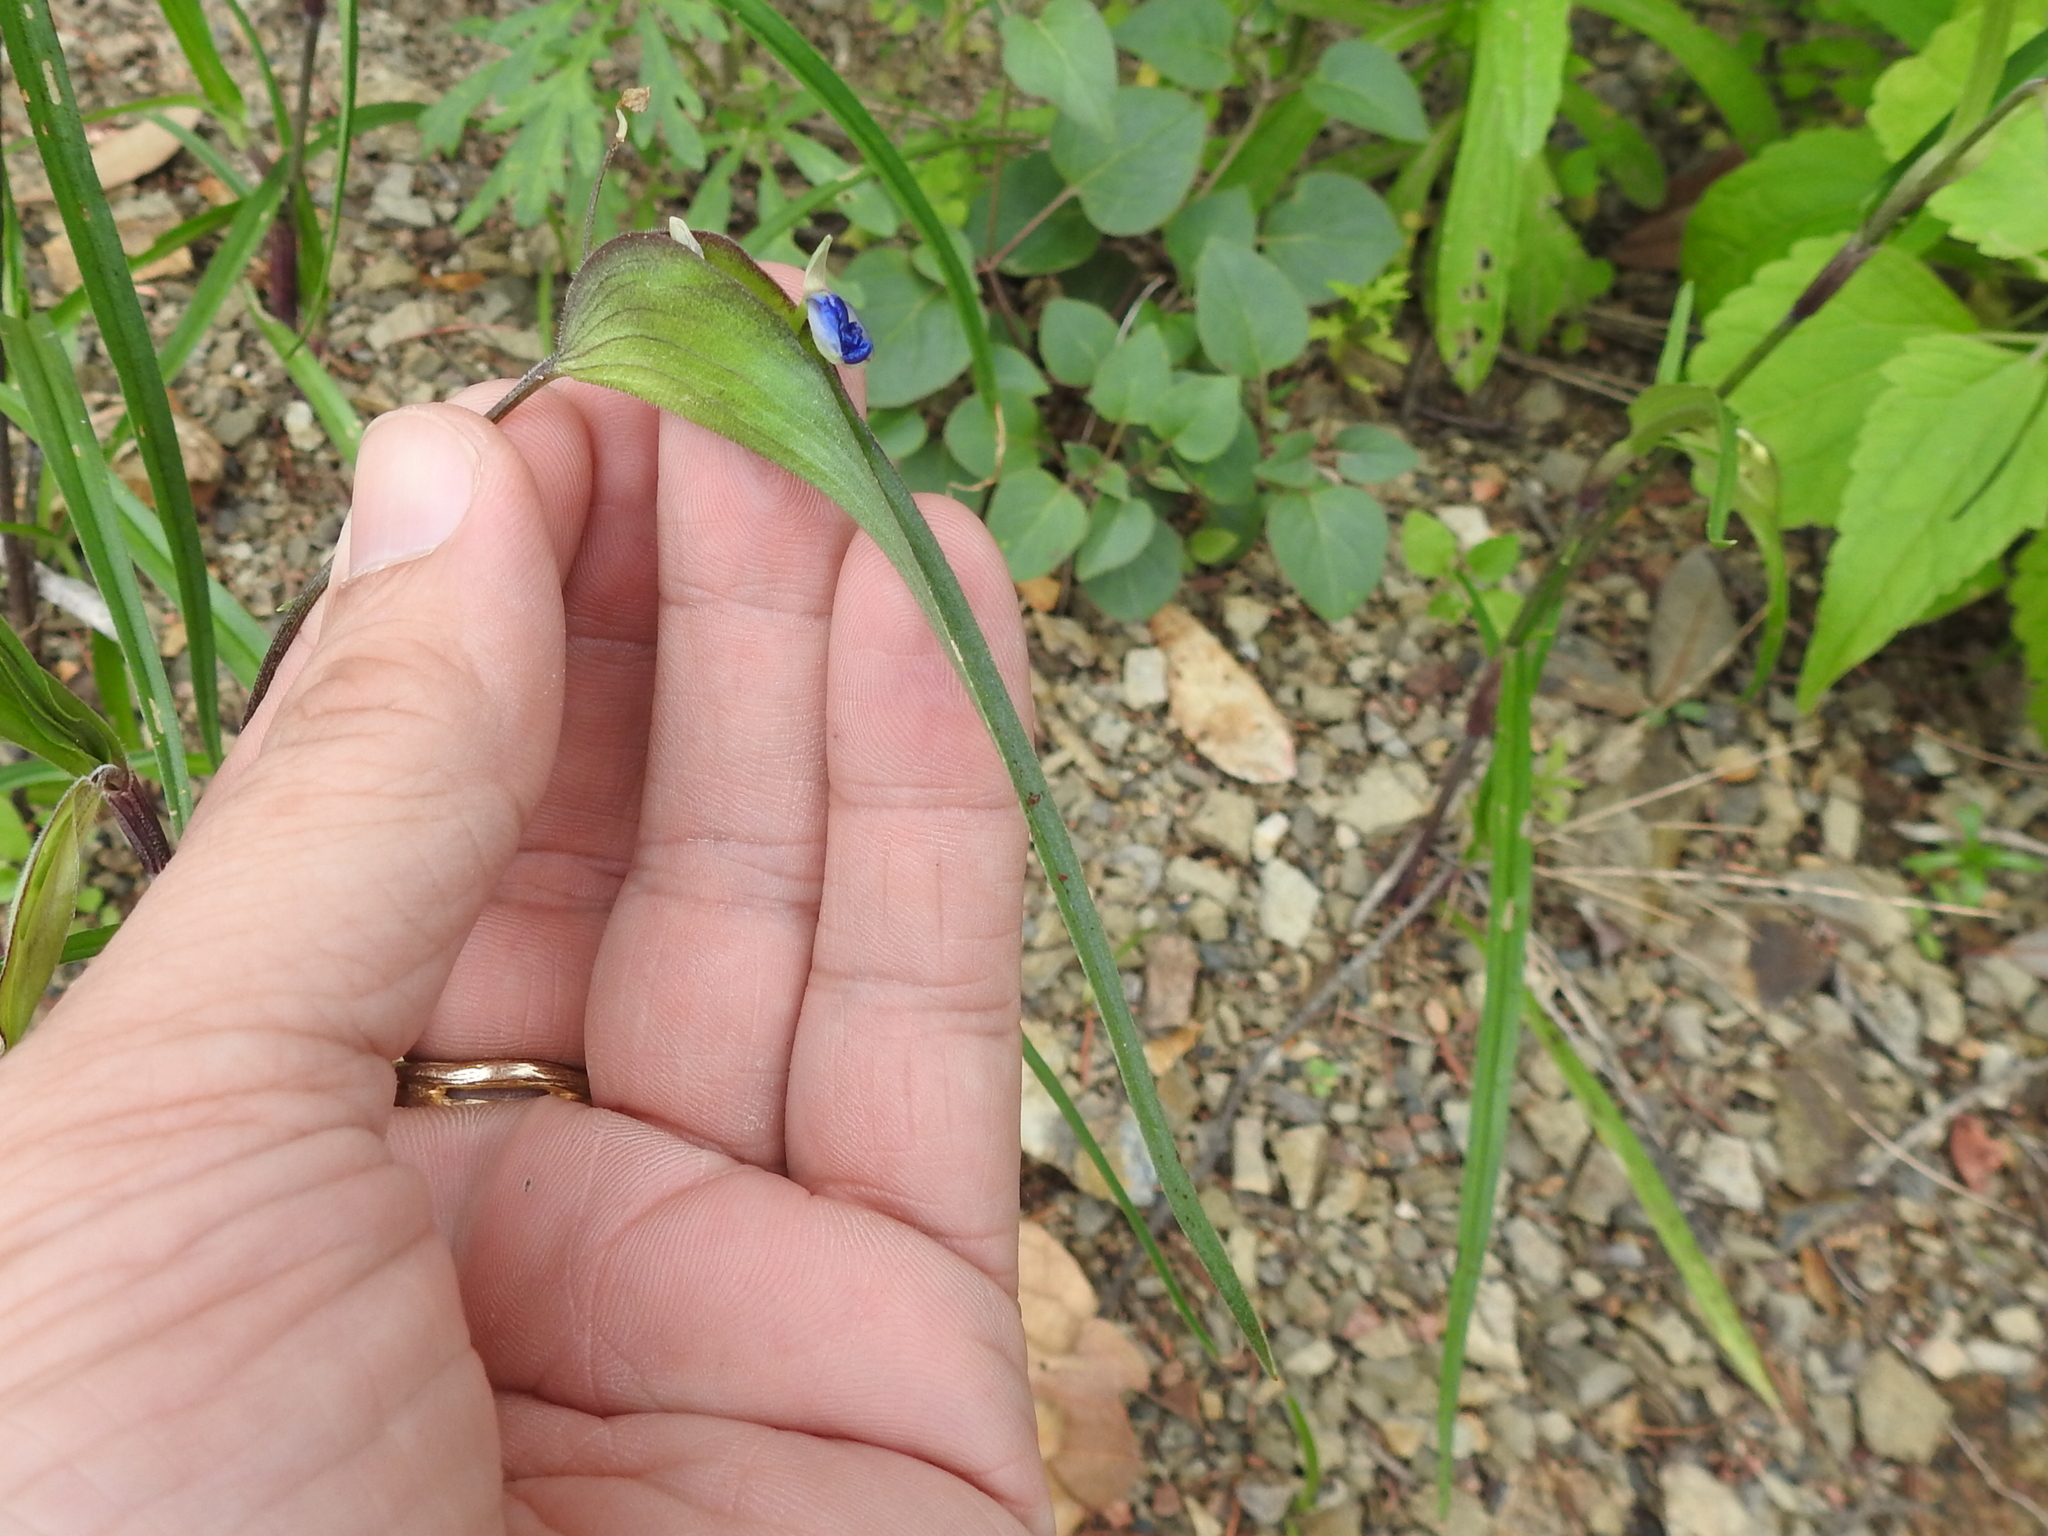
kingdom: Plantae
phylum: Tracheophyta
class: Liliopsida
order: Commelinales
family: Commelinaceae
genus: Commelina
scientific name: Commelina dianthifolia
